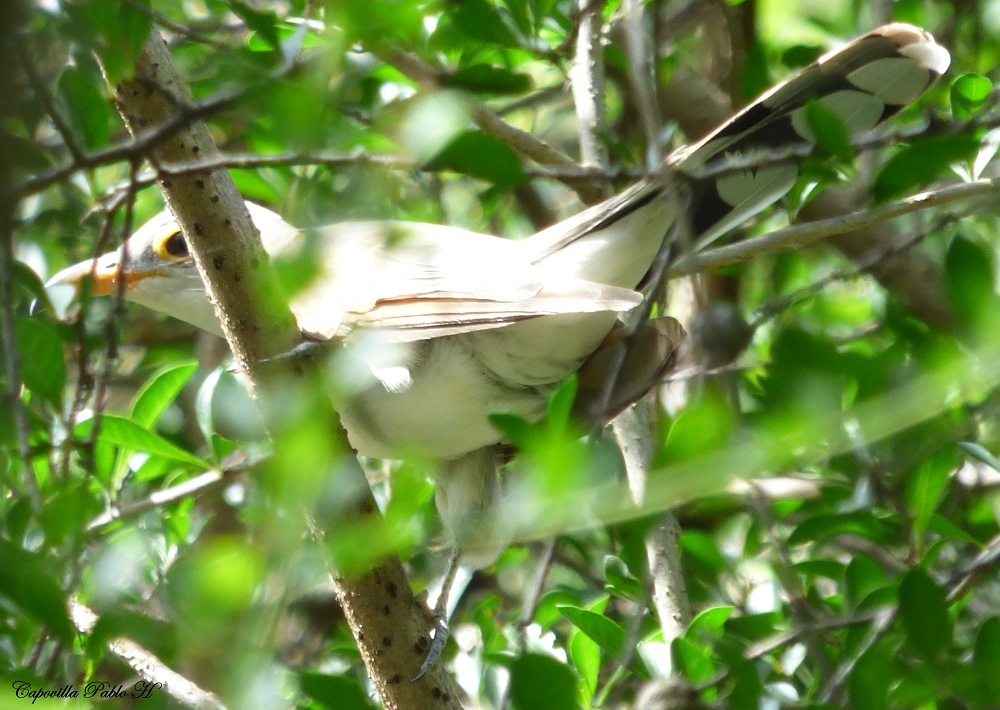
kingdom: Animalia
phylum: Chordata
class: Aves
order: Cuculiformes
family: Cuculidae
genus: Coccyzus
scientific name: Coccyzus americanus
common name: Yellow-billed cuckoo
